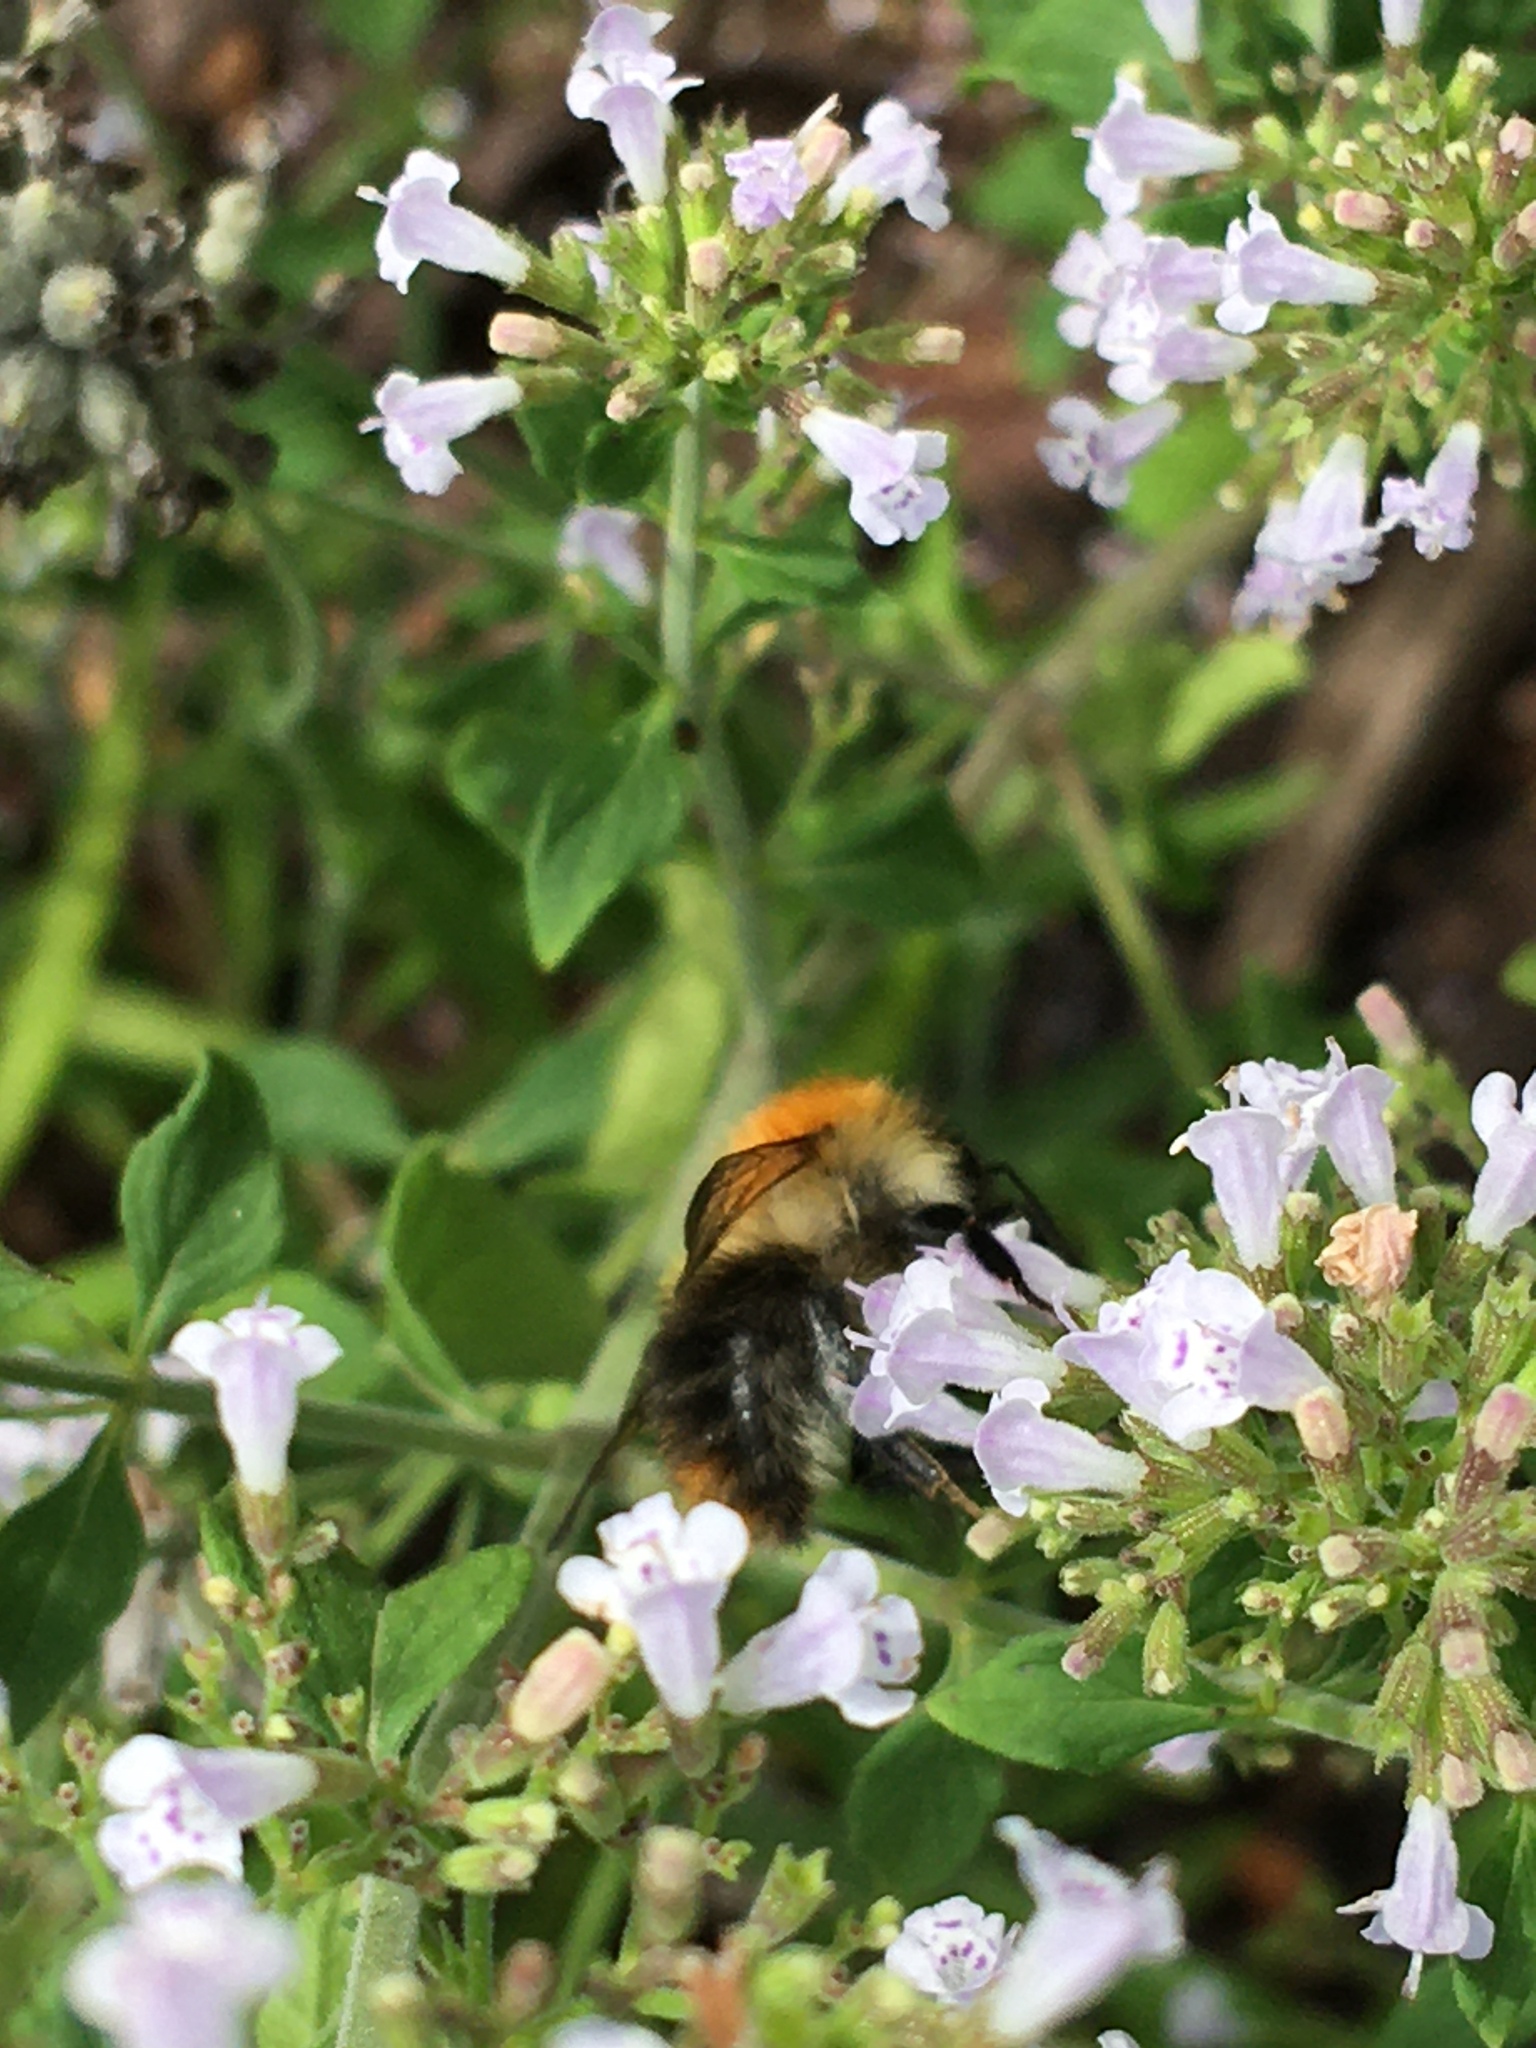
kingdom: Animalia
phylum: Arthropoda
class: Insecta
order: Hymenoptera
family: Apidae
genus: Bombus
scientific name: Bombus pascuorum
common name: Common carder bee
